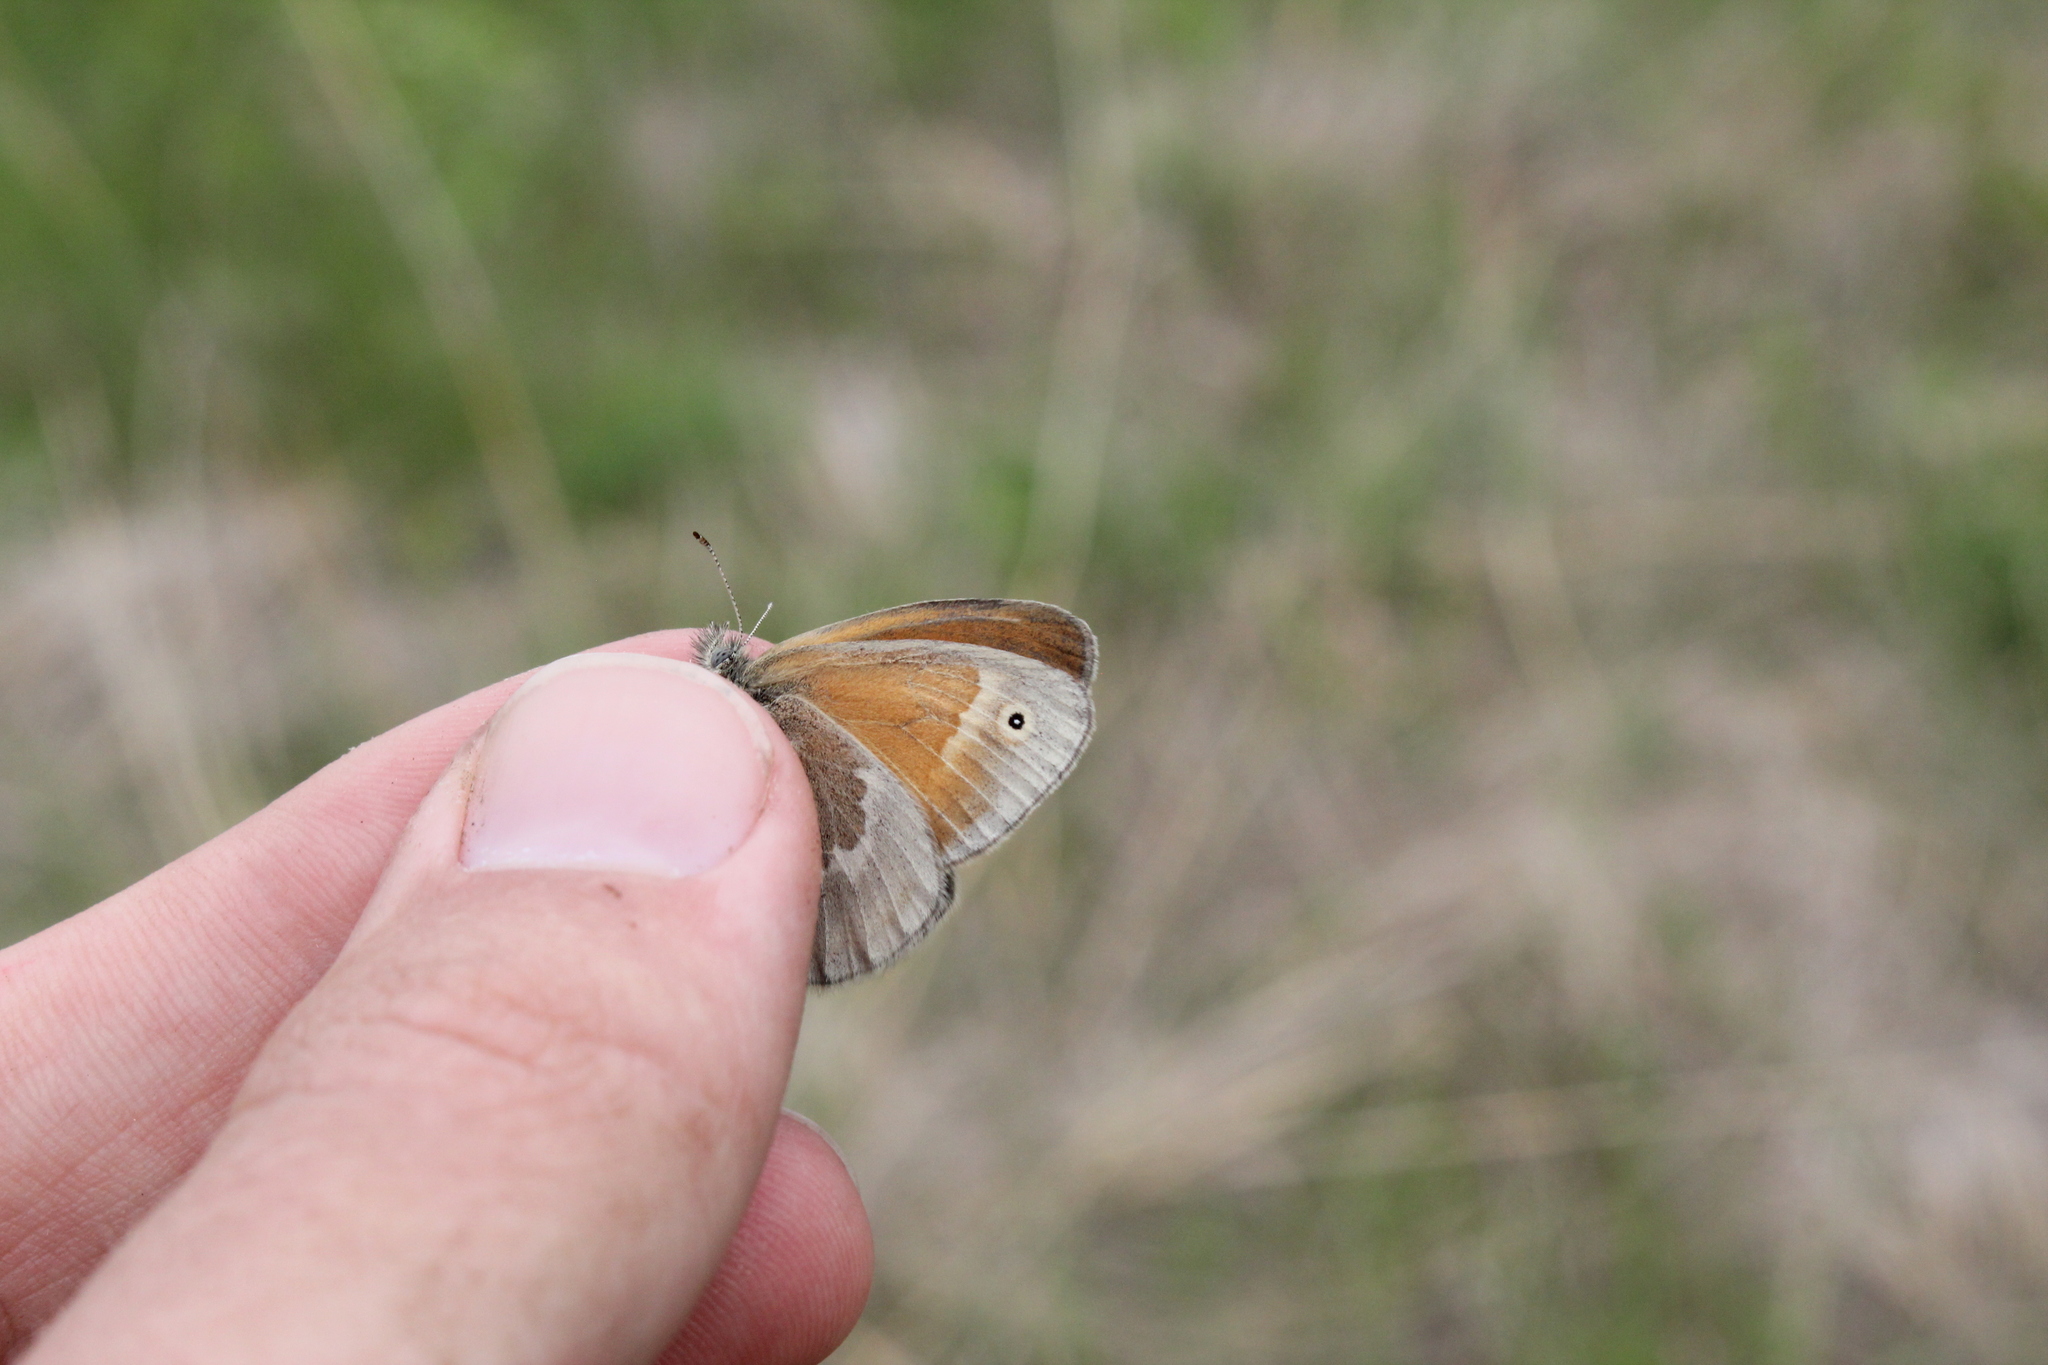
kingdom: Animalia
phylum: Arthropoda
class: Insecta
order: Lepidoptera
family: Nymphalidae
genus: Coenonympha
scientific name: Coenonympha california
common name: Common ringlet
